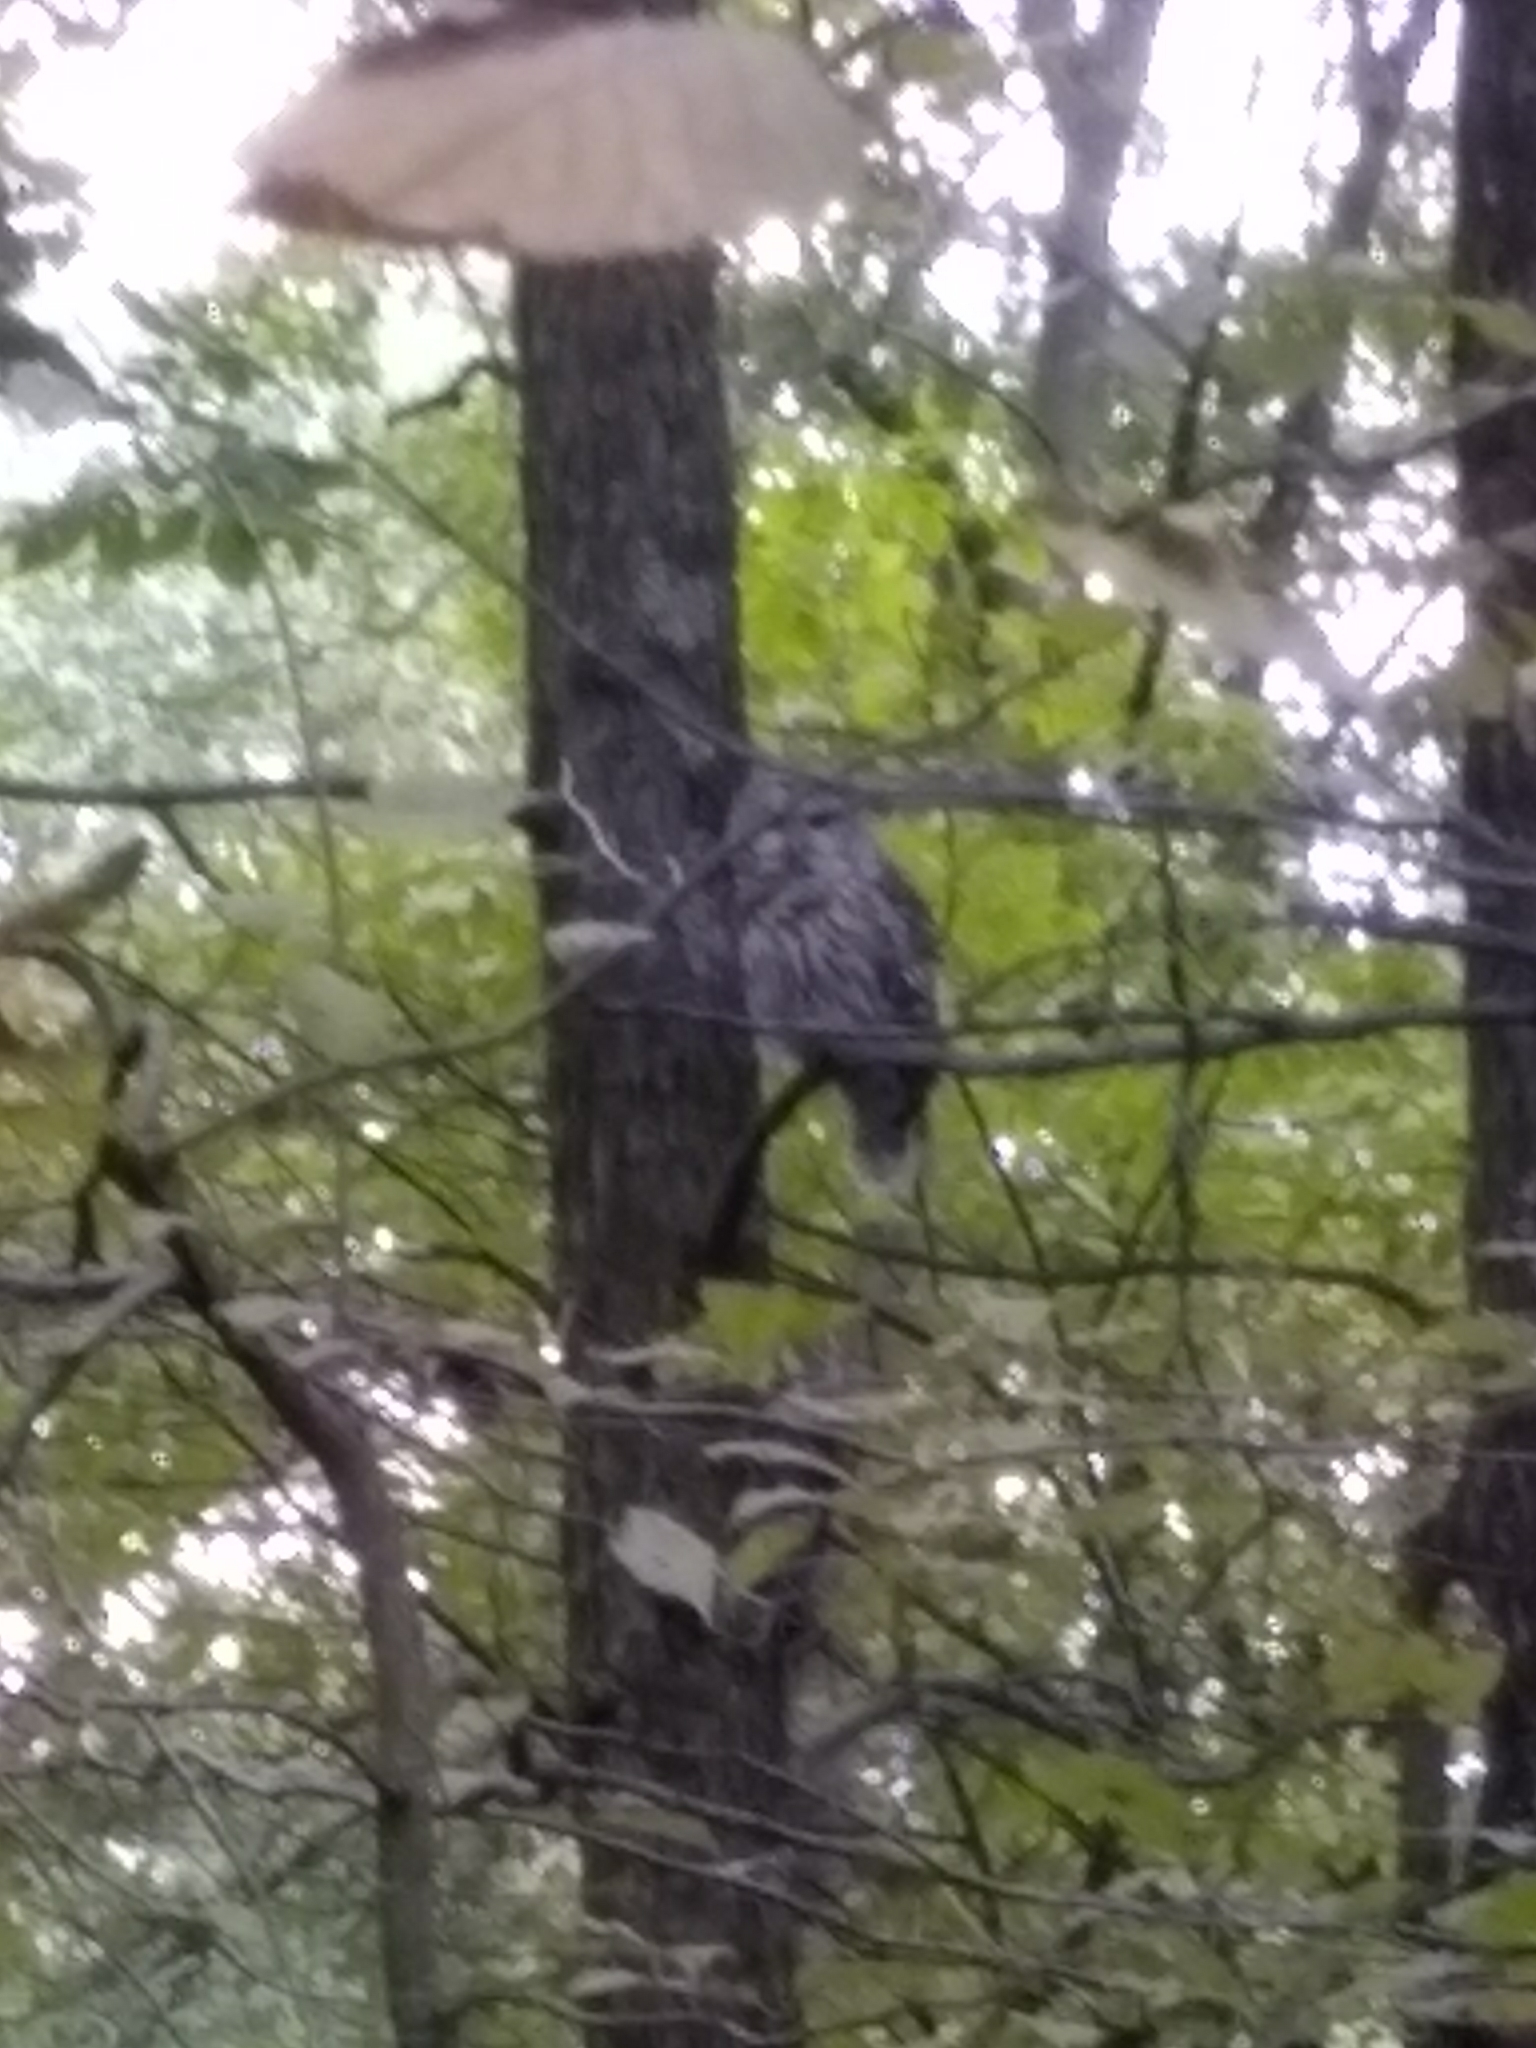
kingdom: Animalia
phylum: Chordata
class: Aves
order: Strigiformes
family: Strigidae
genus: Strix
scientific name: Strix varia
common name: Barred owl
